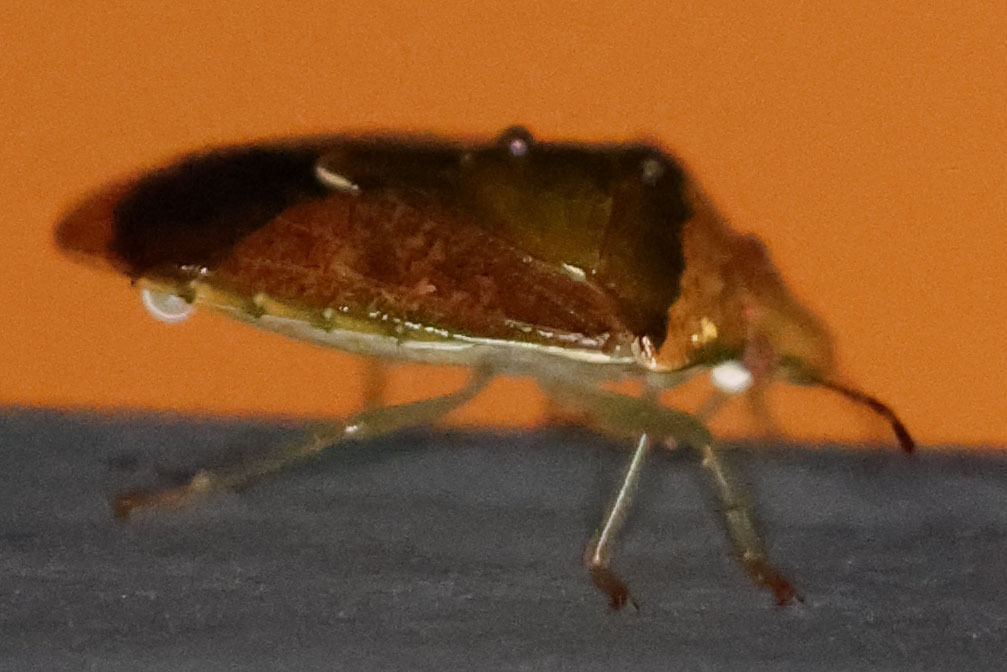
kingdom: Animalia
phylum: Arthropoda
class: Insecta
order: Hemiptera
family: Pentatomidae
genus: Banasa
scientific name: Banasa calva
